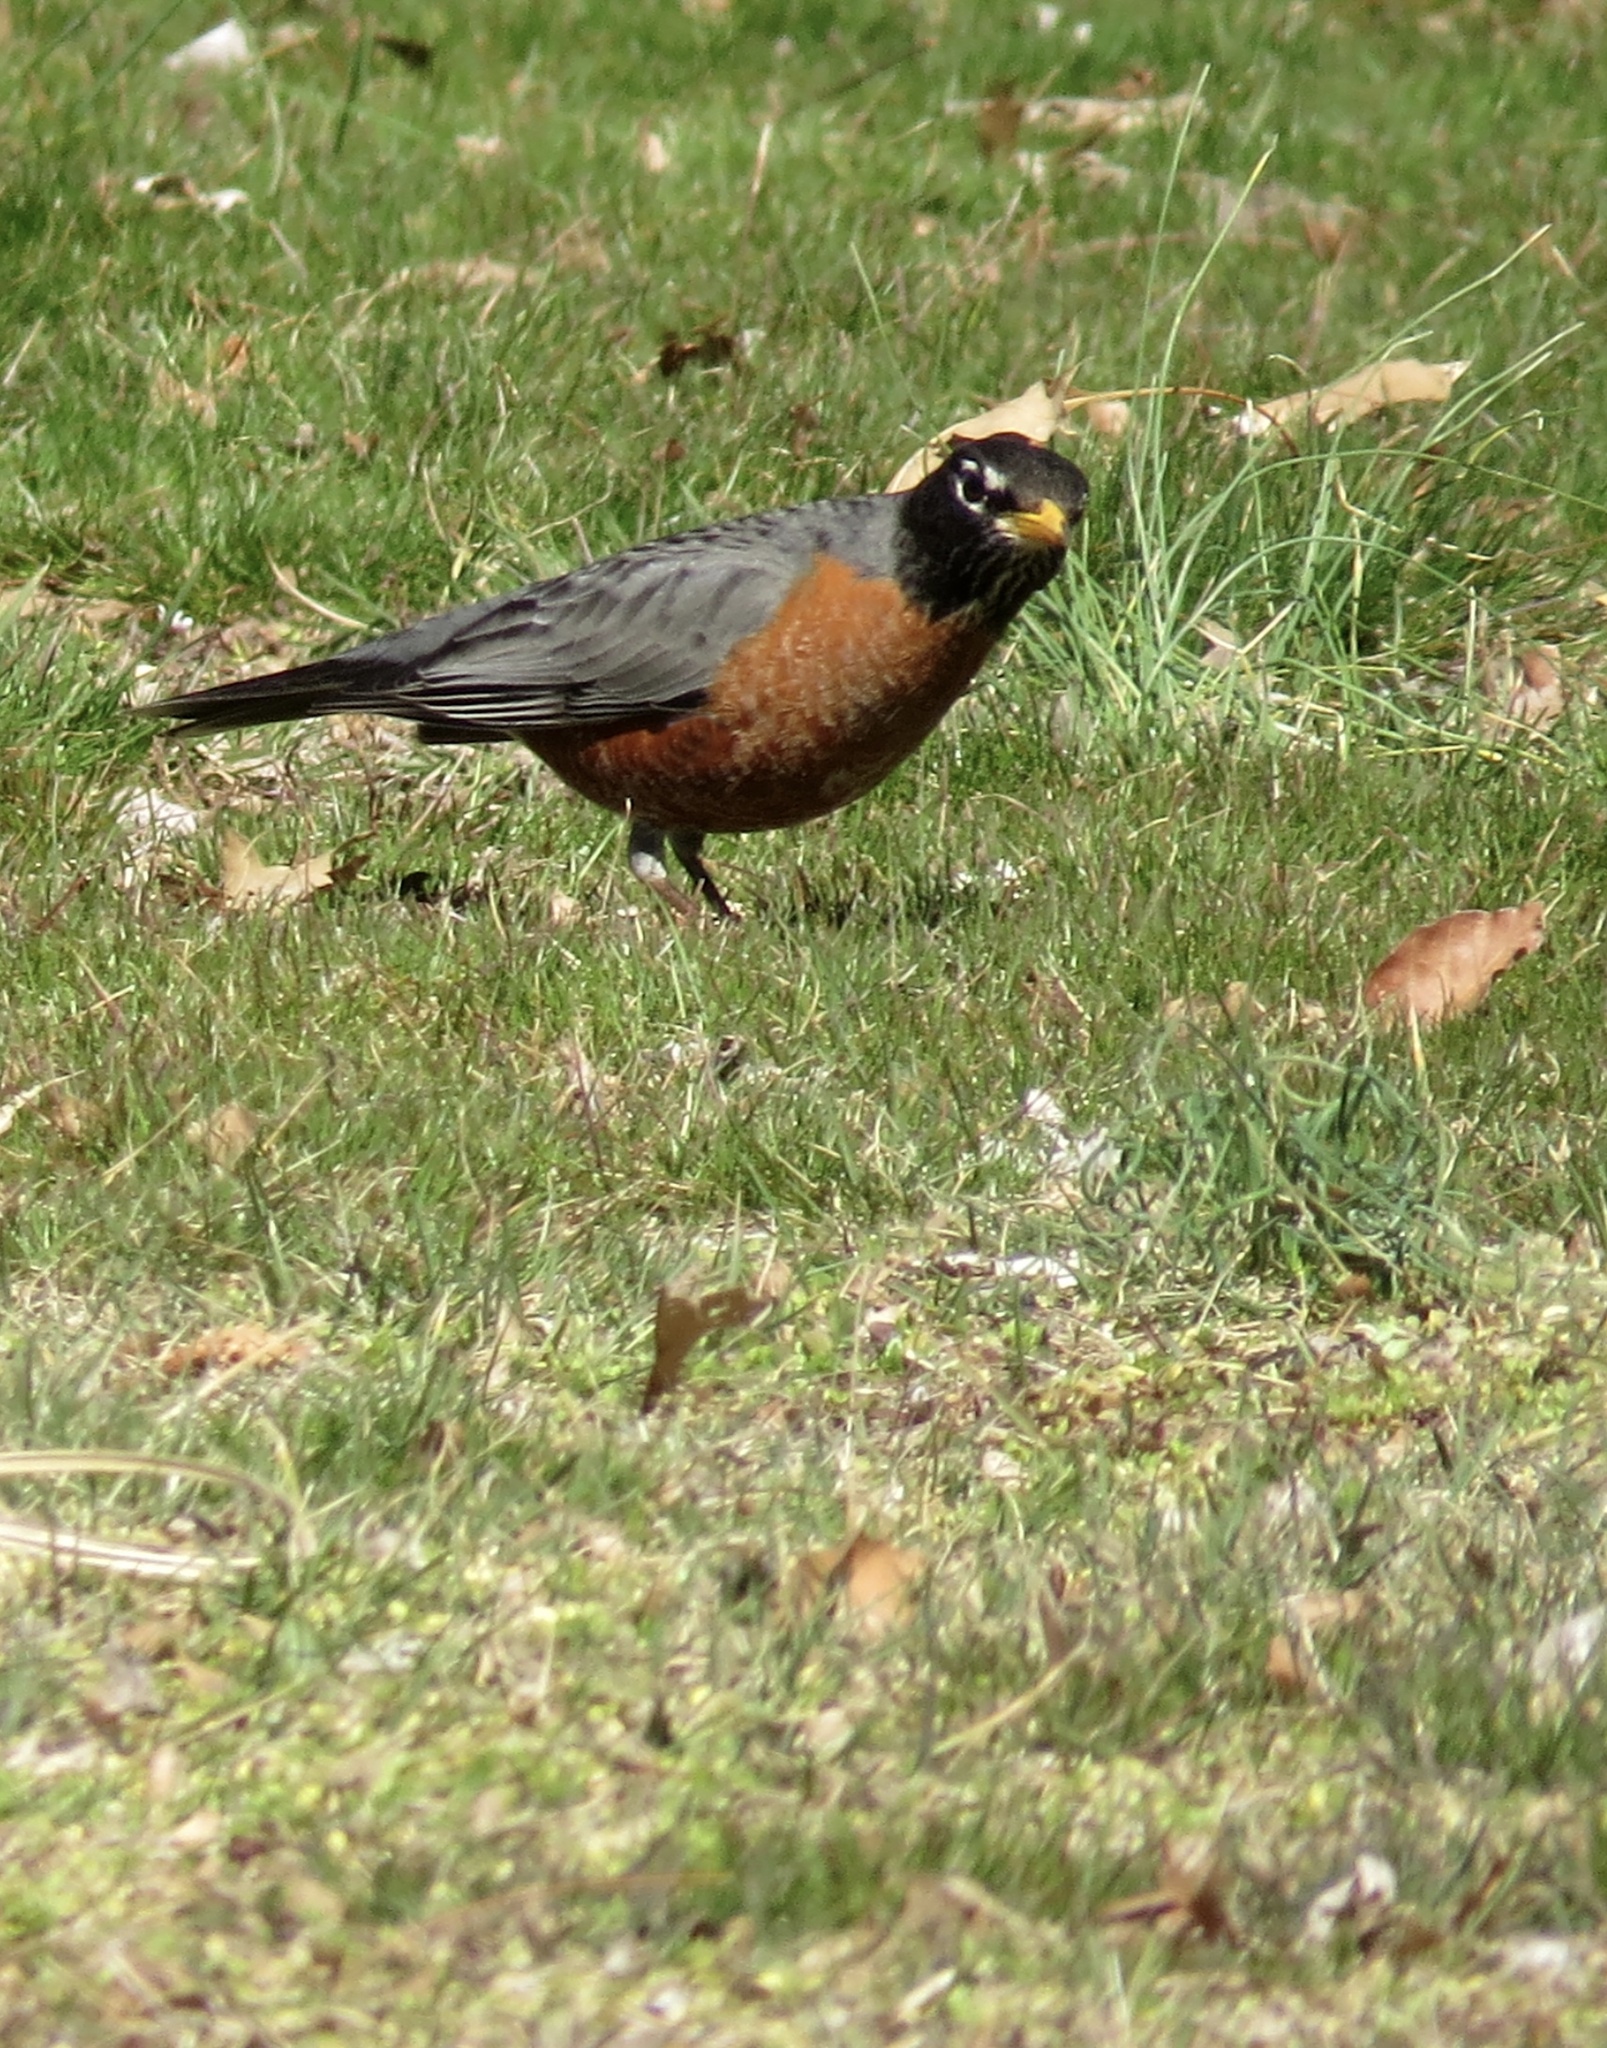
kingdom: Animalia
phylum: Chordata
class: Aves
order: Passeriformes
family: Turdidae
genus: Turdus
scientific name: Turdus migratorius
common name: American robin
